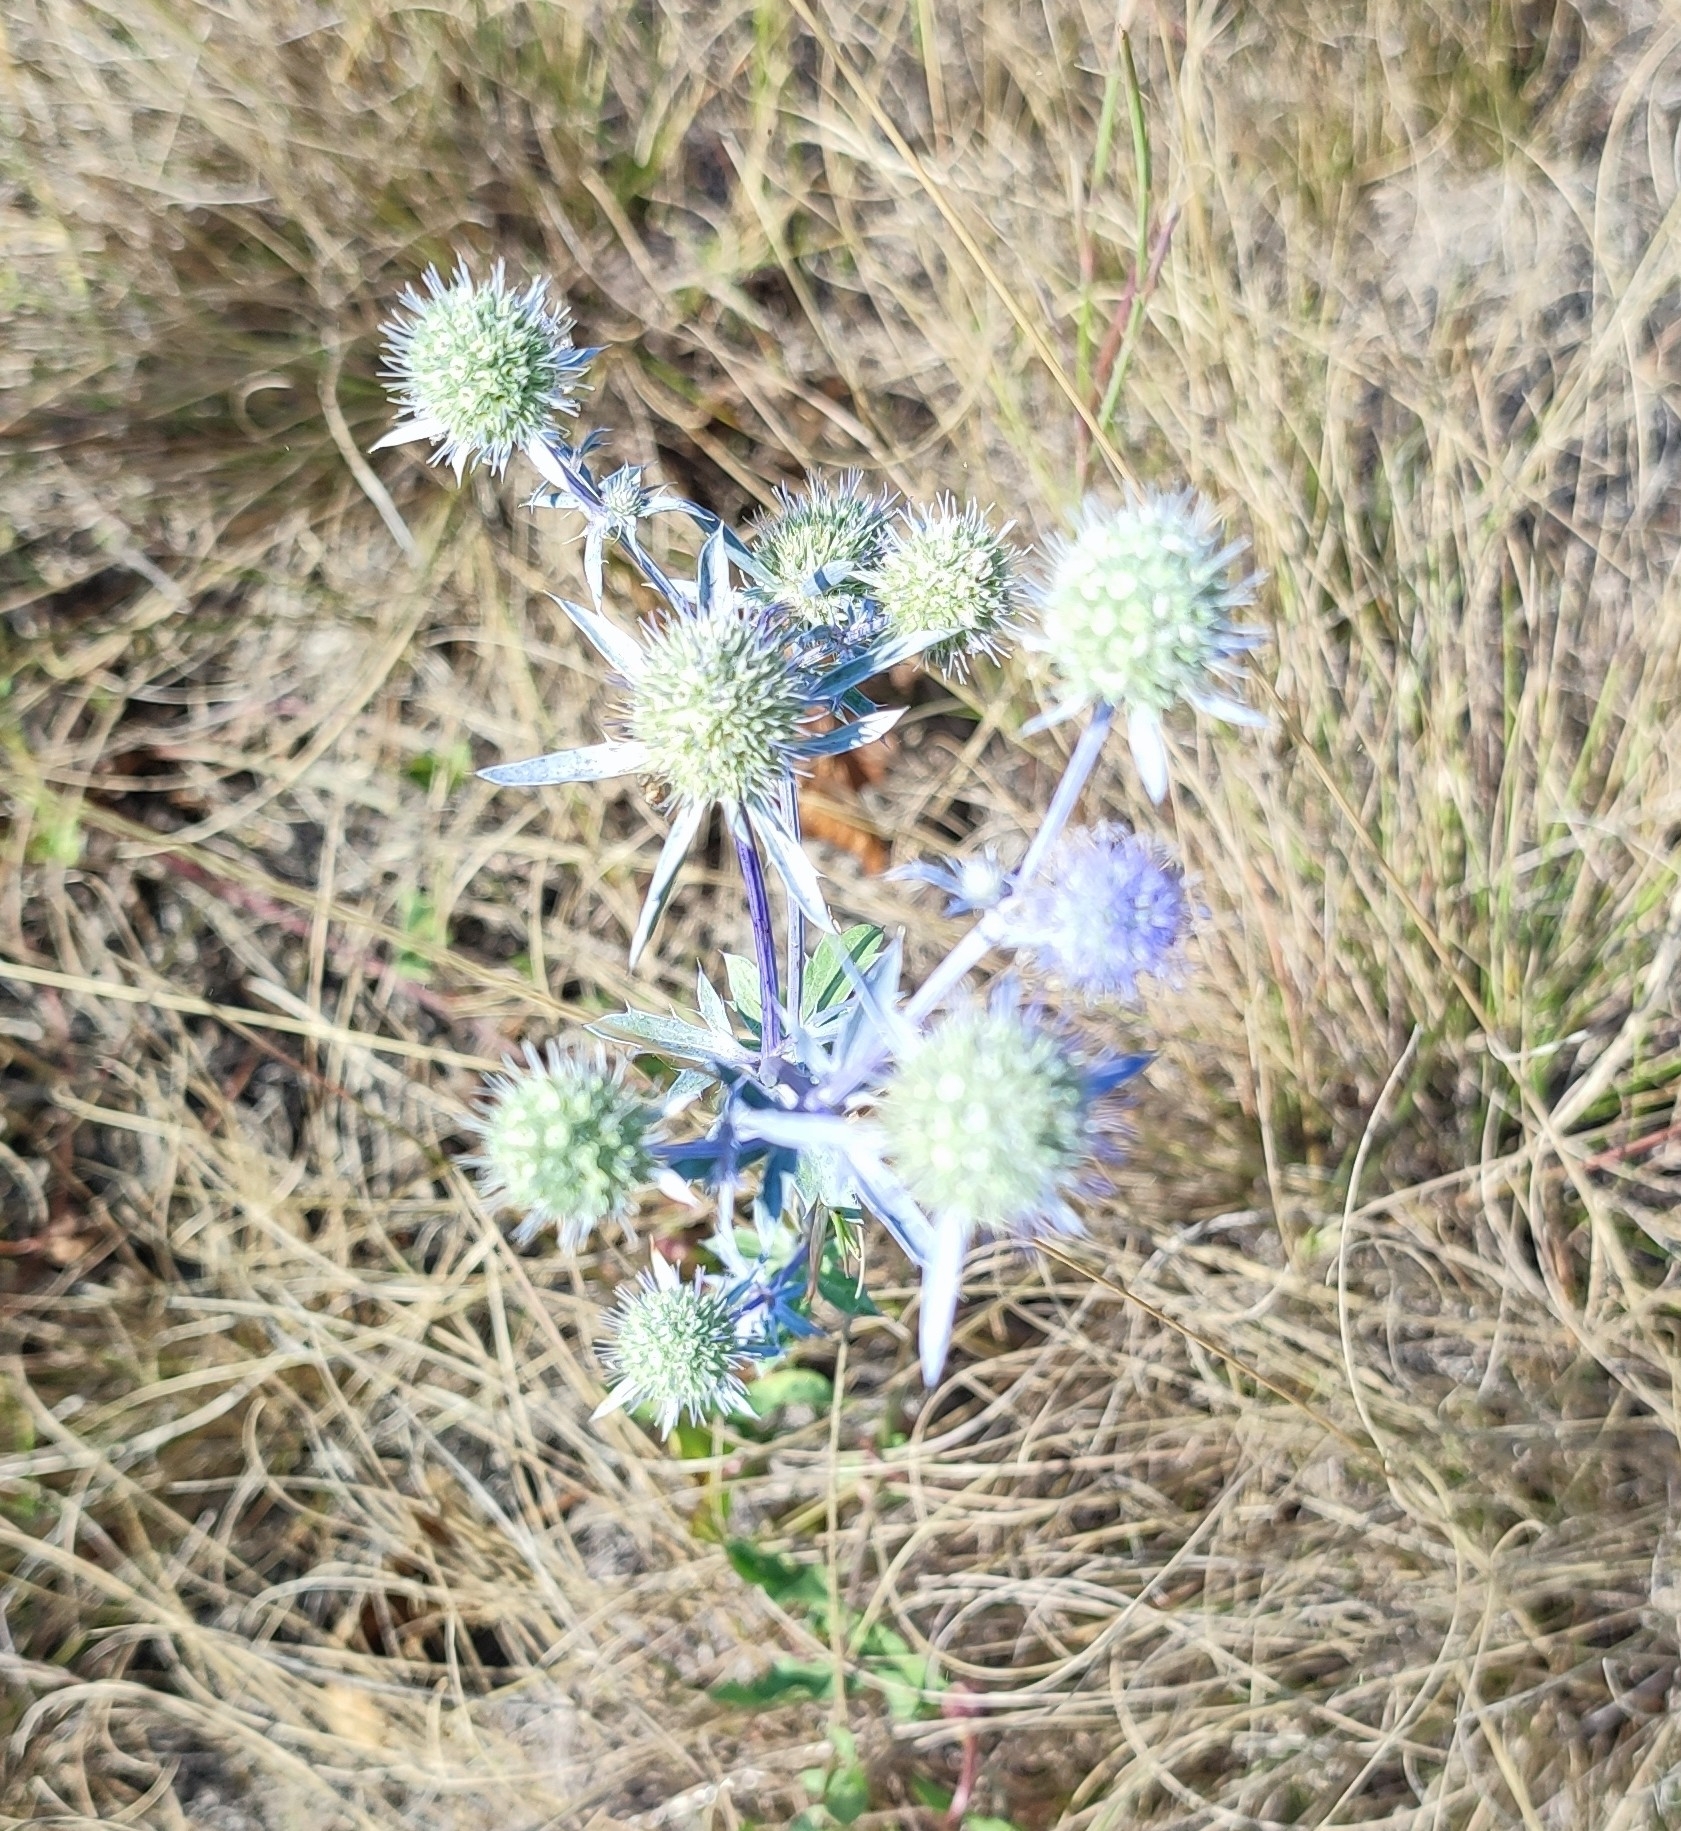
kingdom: Plantae
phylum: Tracheophyta
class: Magnoliopsida
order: Apiales
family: Apiaceae
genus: Eryngium
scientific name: Eryngium planum
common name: Blue eryngo
